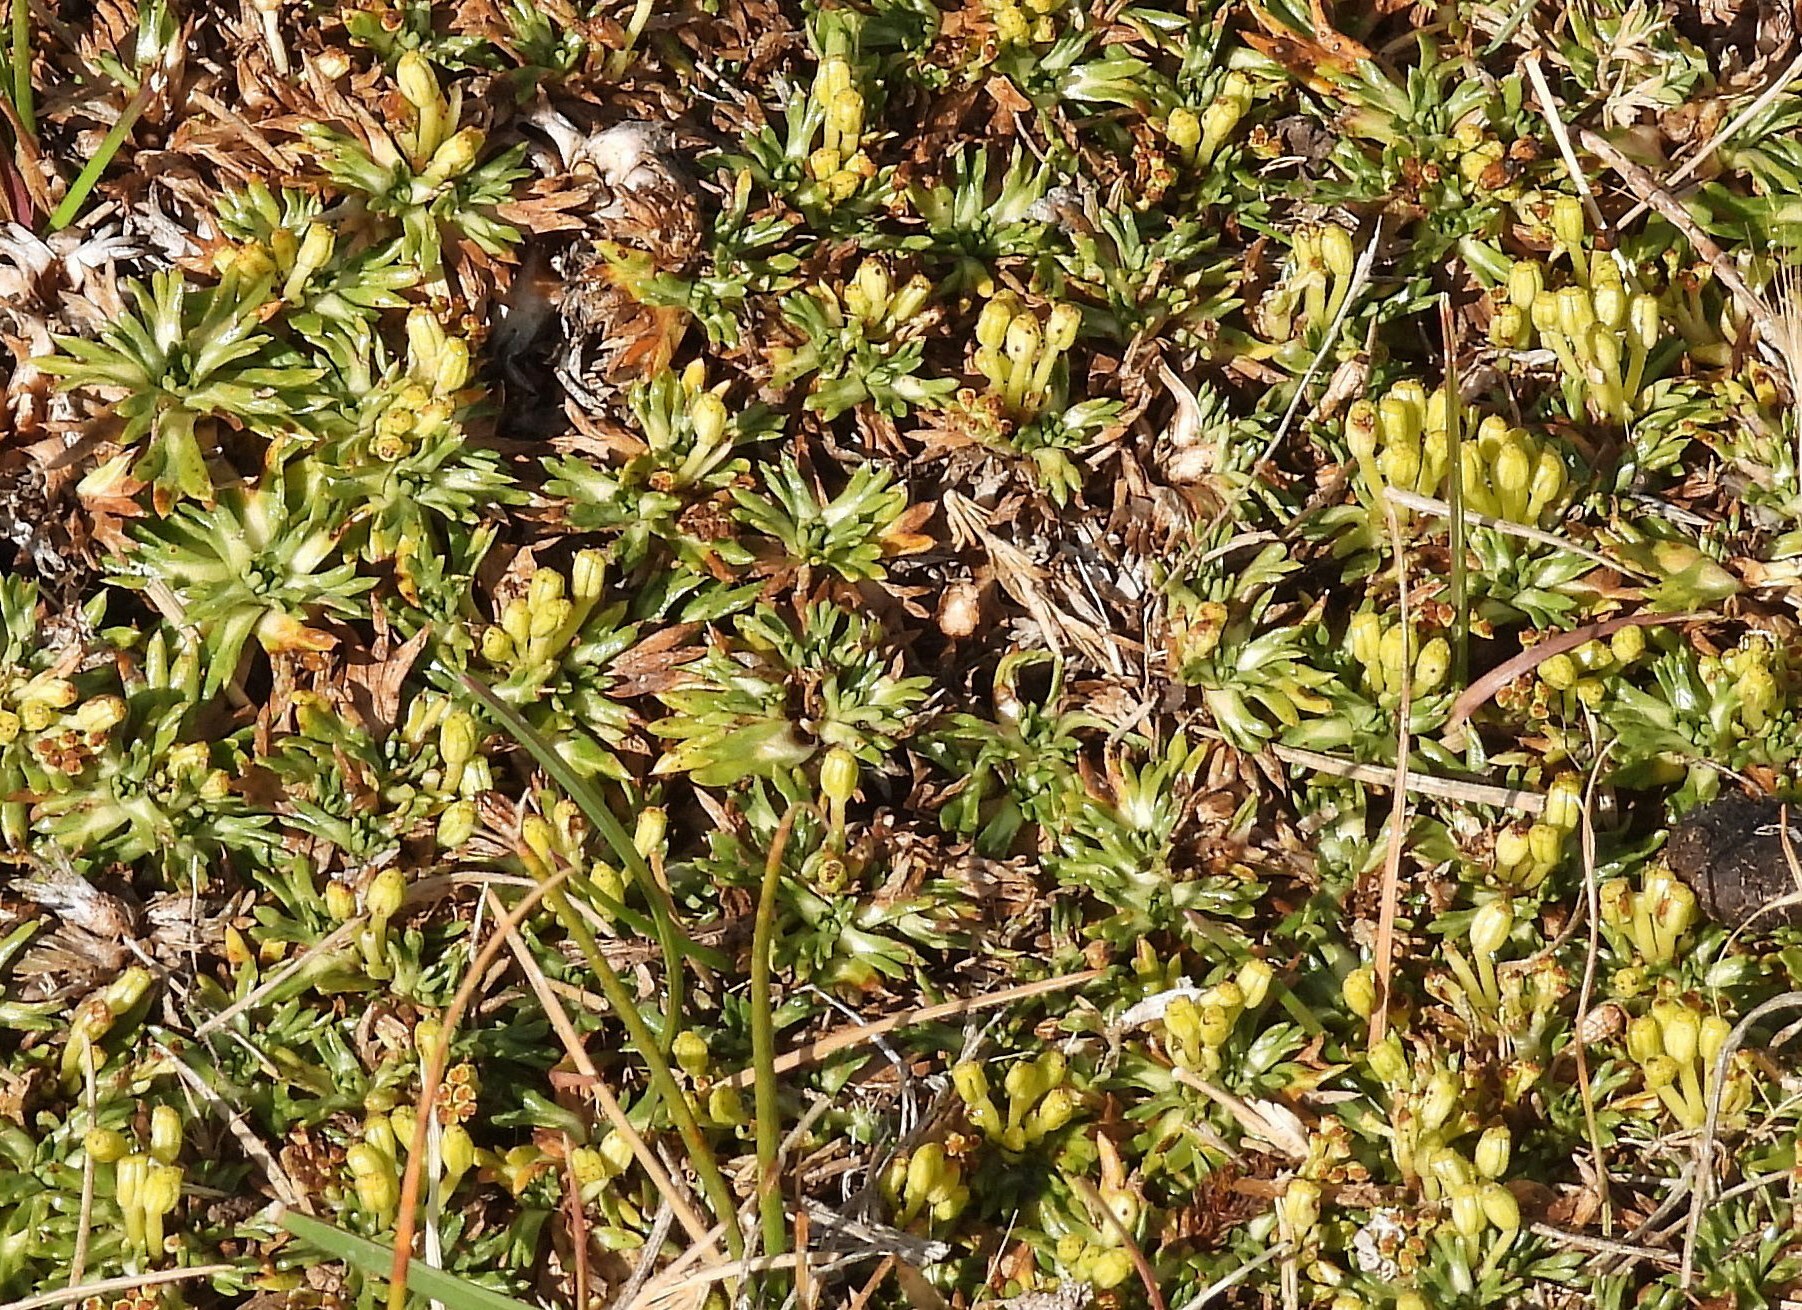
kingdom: Plantae
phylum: Tracheophyta
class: Magnoliopsida
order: Apiales
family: Apiaceae
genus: Azorella
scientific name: Azorella trifurcata
